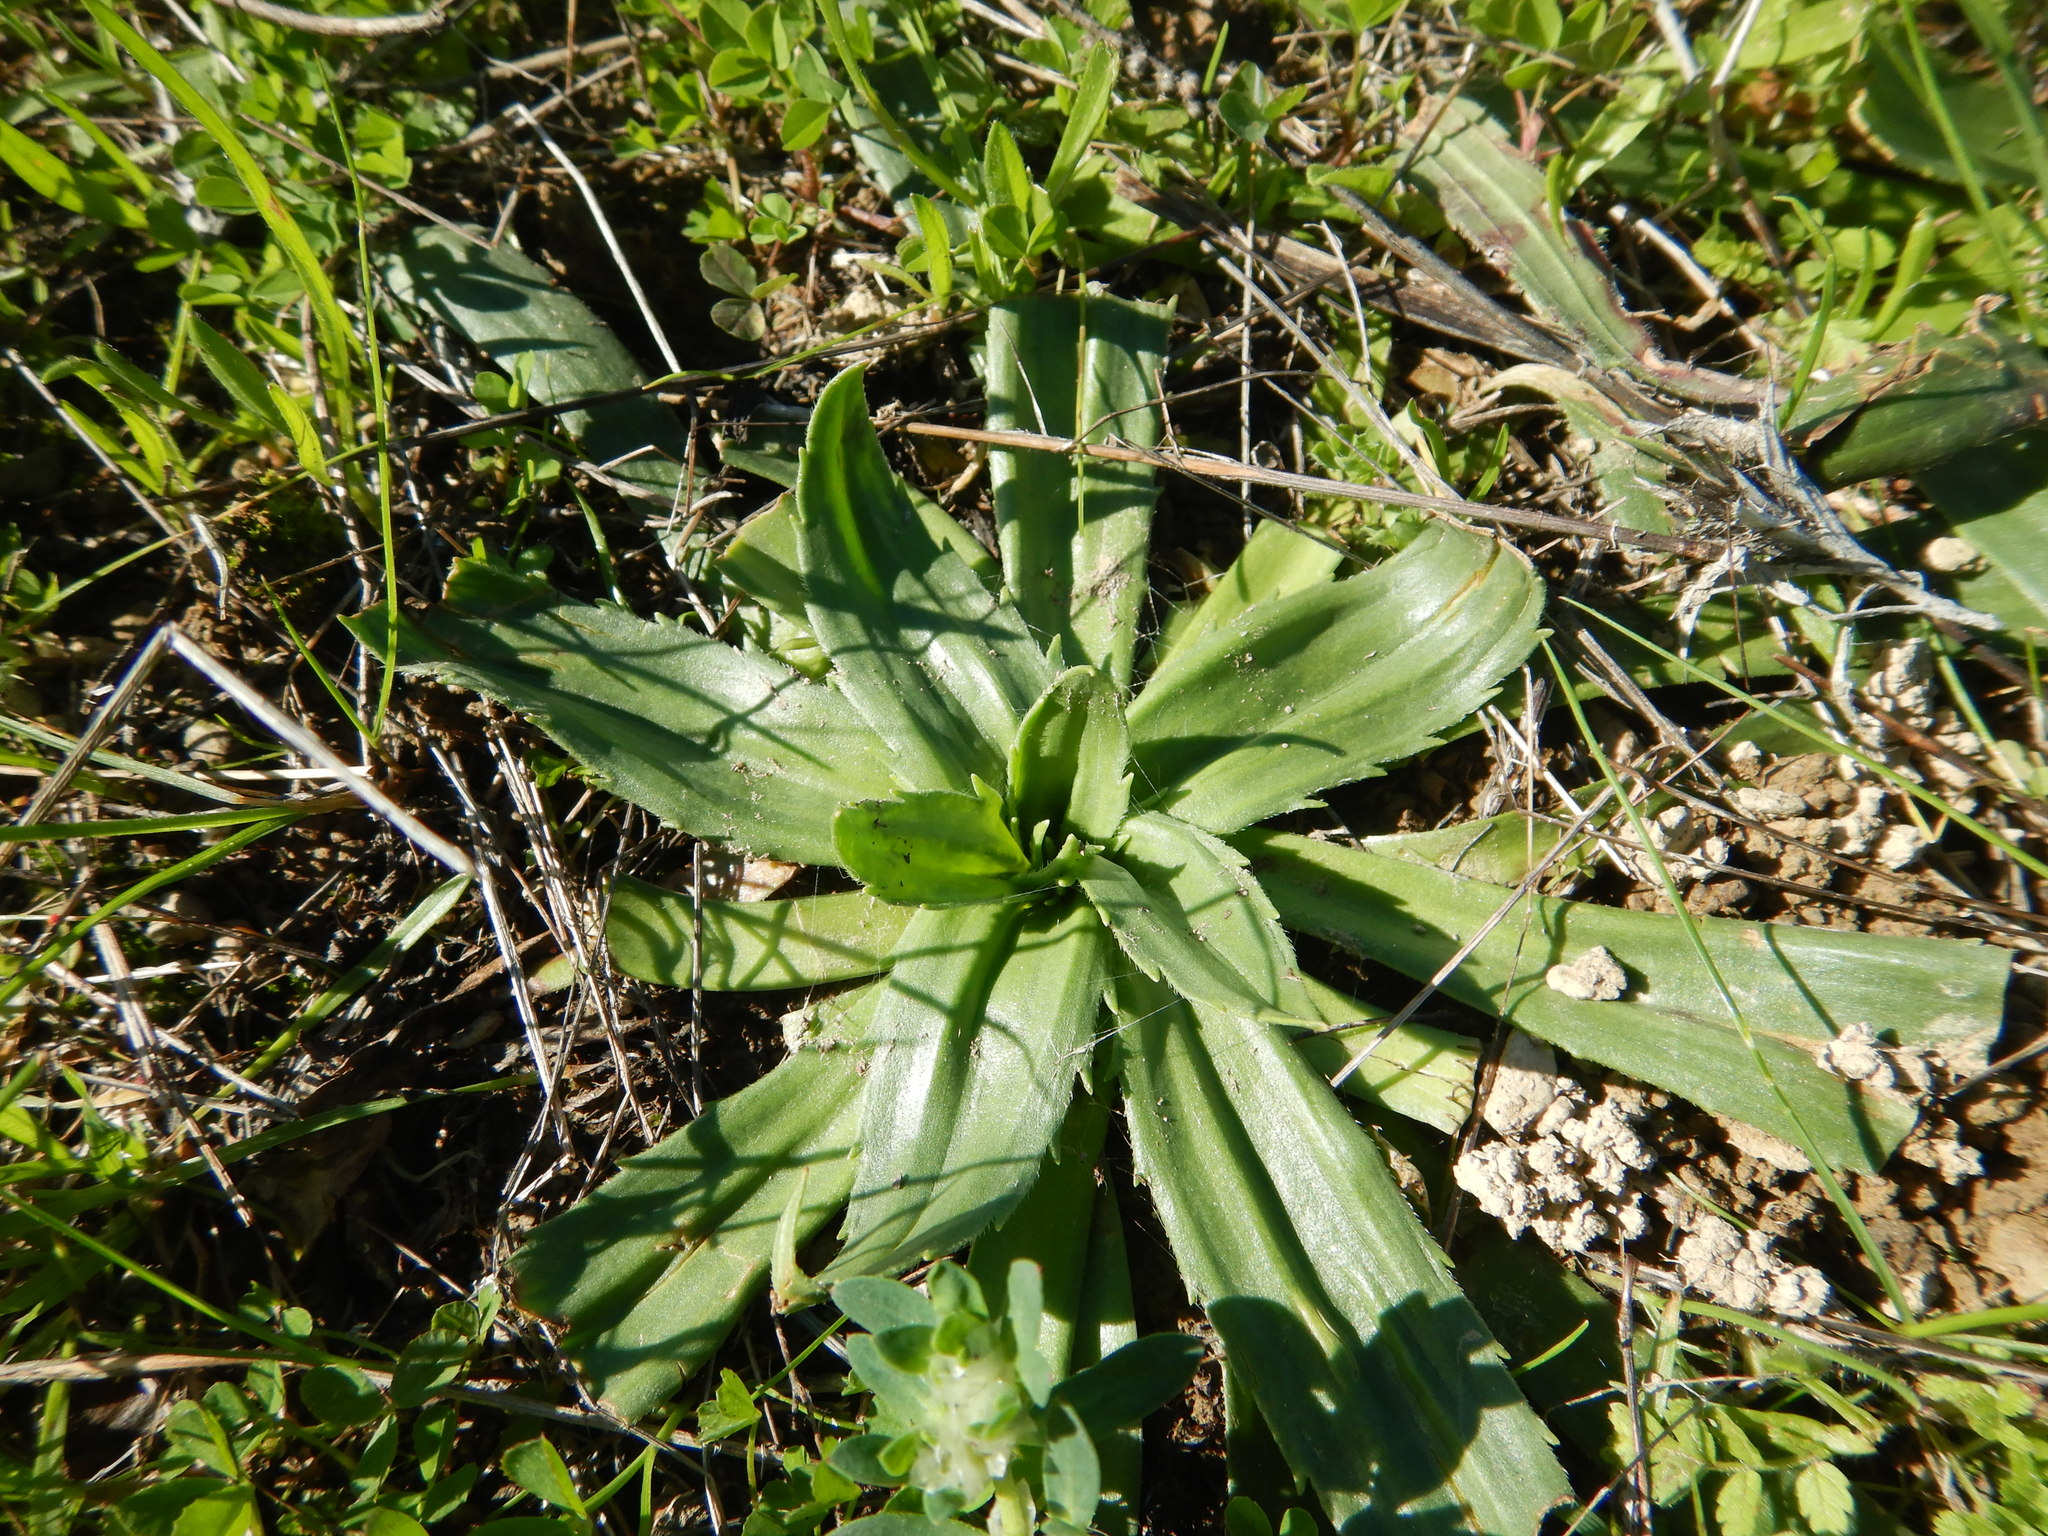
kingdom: Plantae
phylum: Tracheophyta
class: Magnoliopsida
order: Lamiales
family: Plantaginaceae
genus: Plantago
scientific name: Plantago serraria
